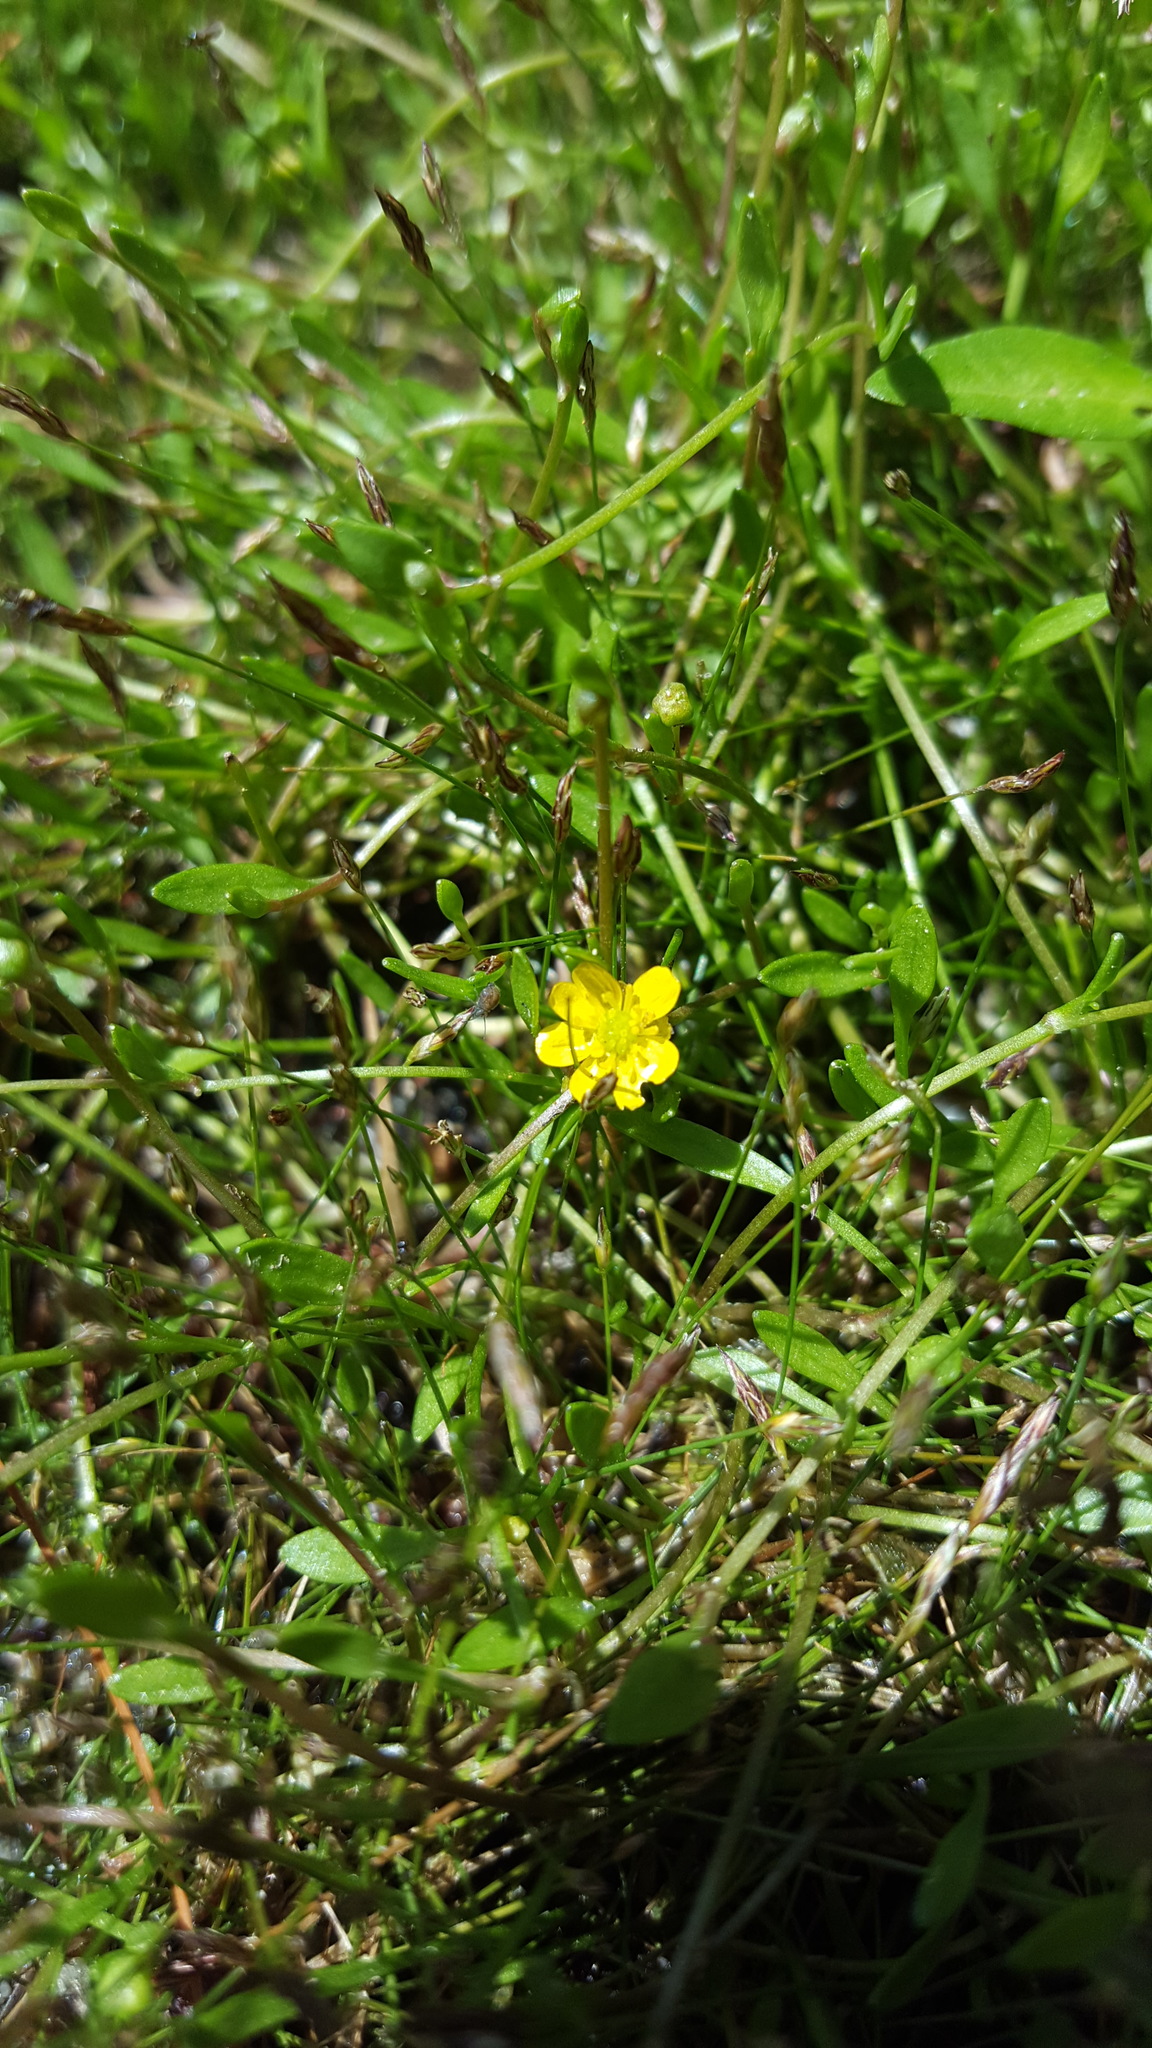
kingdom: Plantae
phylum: Tracheophyta
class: Magnoliopsida
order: Ranunculales
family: Ranunculaceae
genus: Ranunculus
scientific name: Ranunculus flammula
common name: Lesser spearwort
